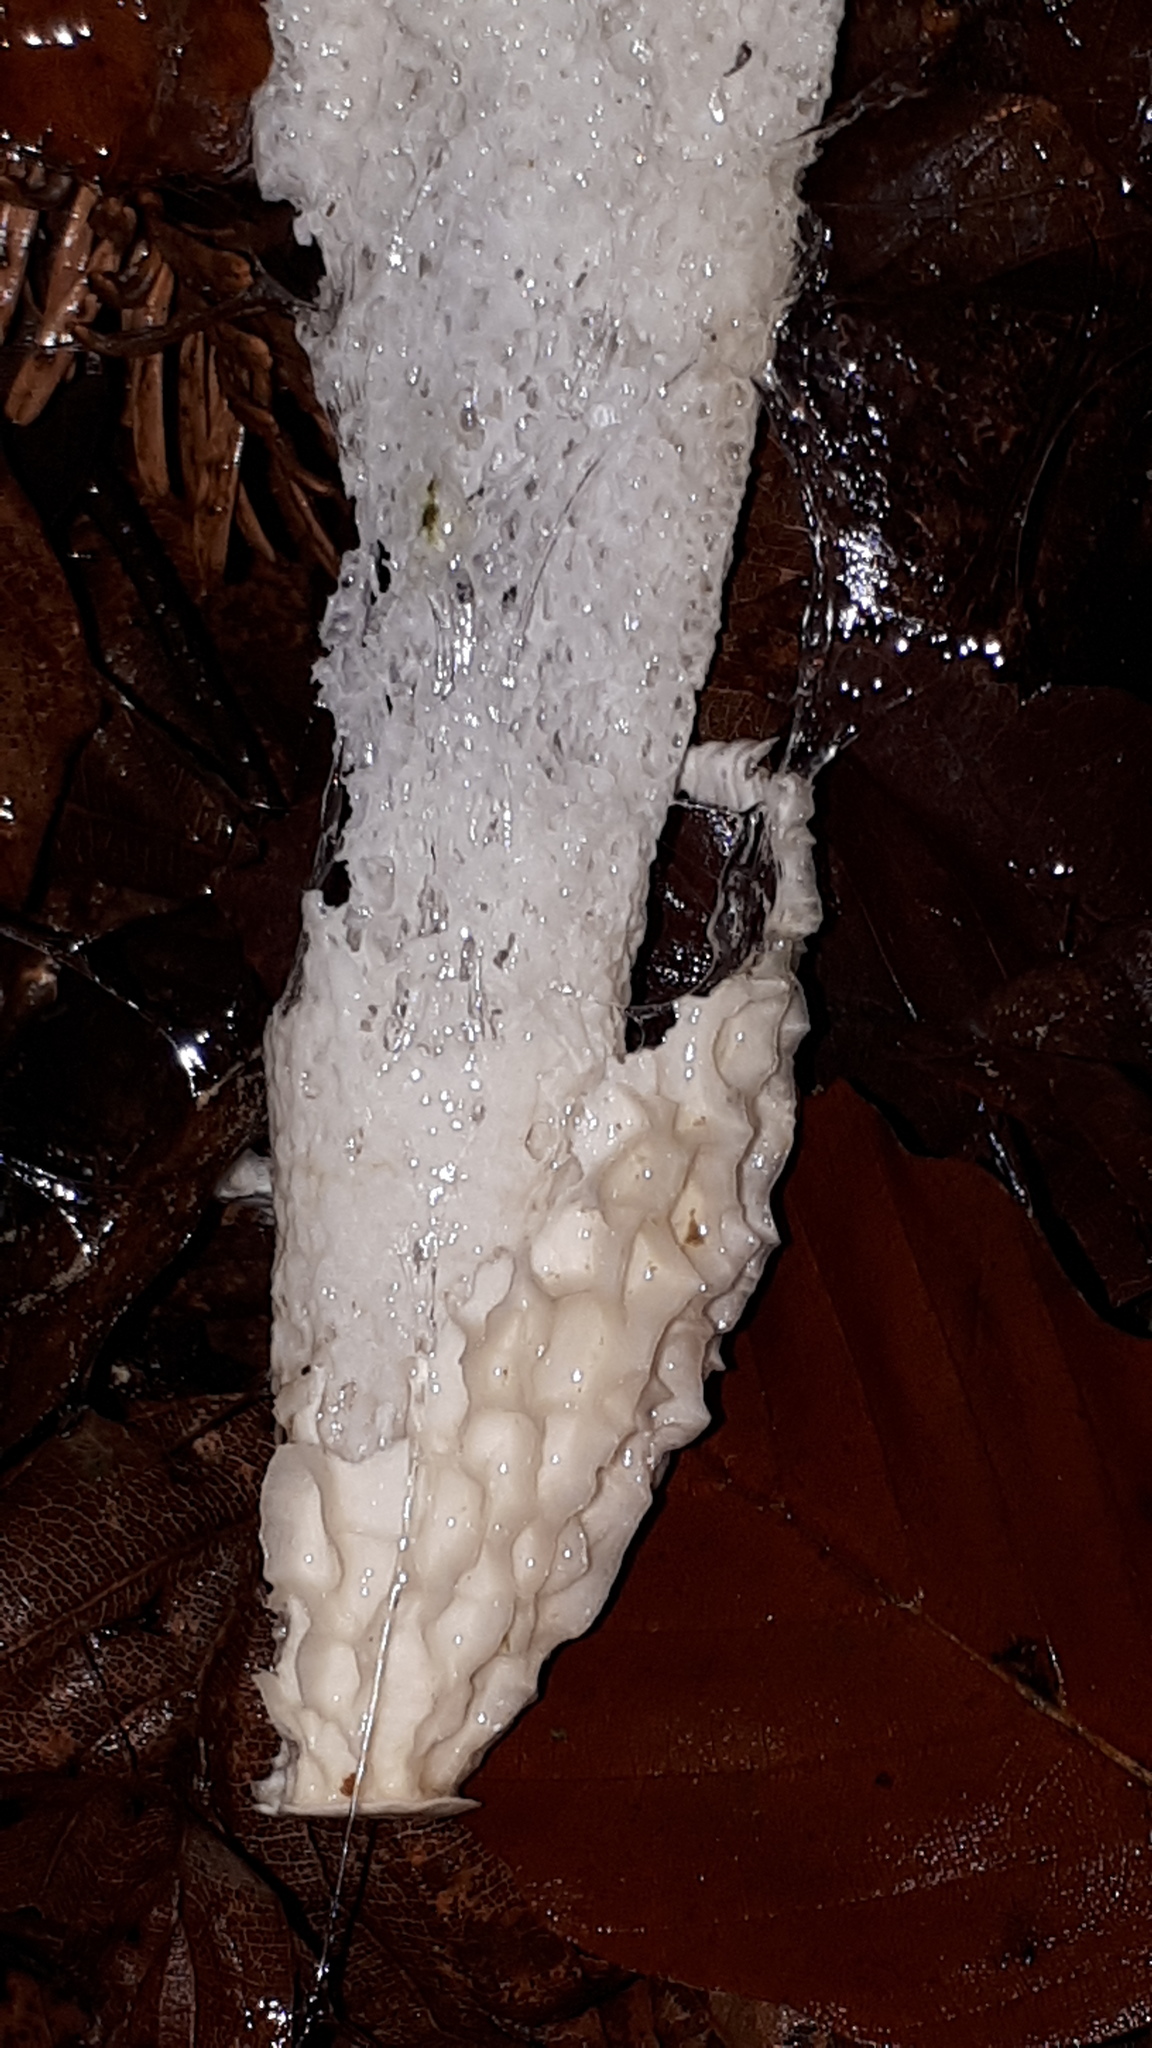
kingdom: Fungi
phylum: Basidiomycota
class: Agaricomycetes
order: Phallales
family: Phallaceae
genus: Phallus
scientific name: Phallus impudicus
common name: Common stinkhorn
